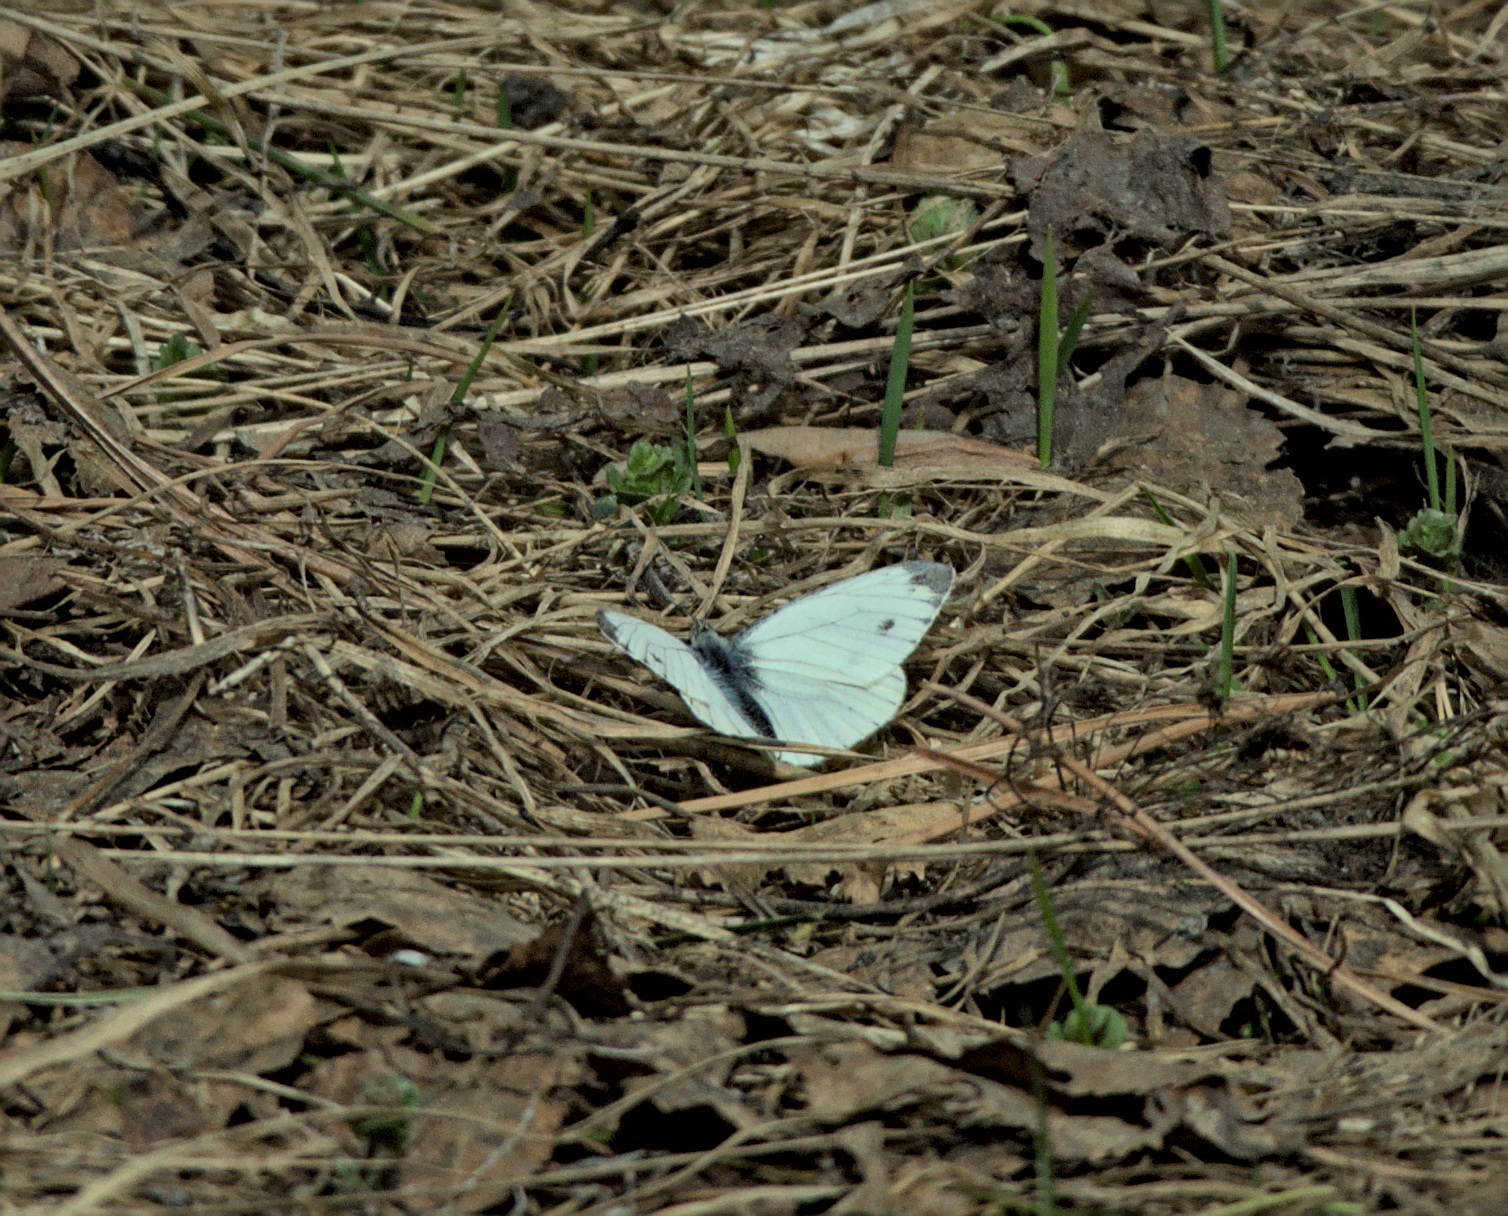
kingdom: Animalia
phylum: Arthropoda
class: Insecta
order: Lepidoptera
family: Pieridae
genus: Pieris
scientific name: Pieris napi
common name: Green-veined white
